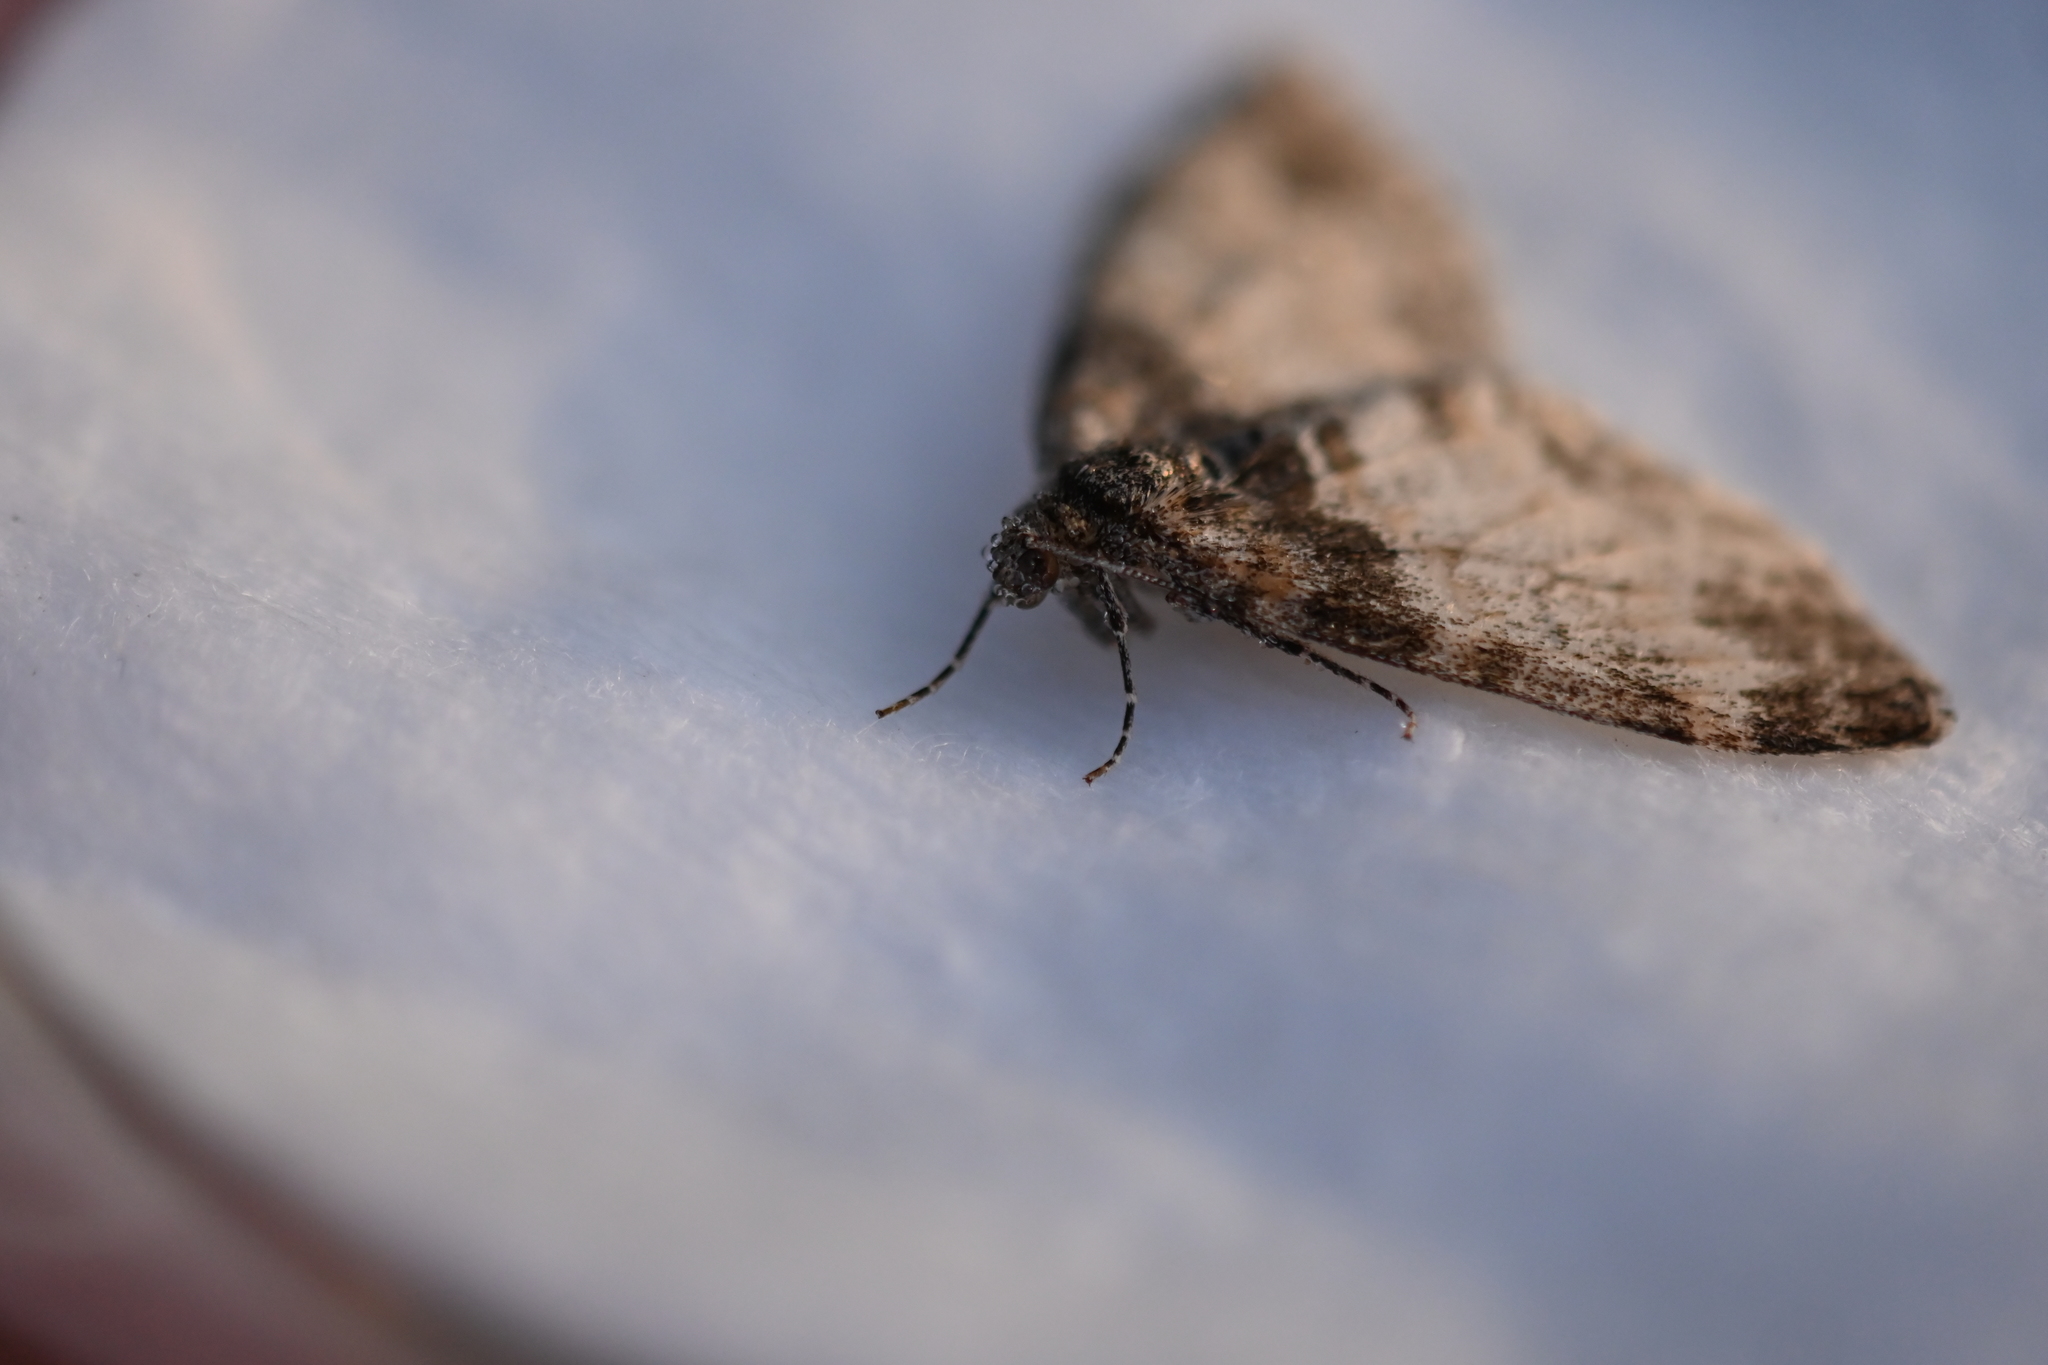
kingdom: Animalia
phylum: Arthropoda
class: Insecta
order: Lepidoptera
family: Geometridae
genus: Lobophora
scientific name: Lobophora halterata
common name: Seraphim
